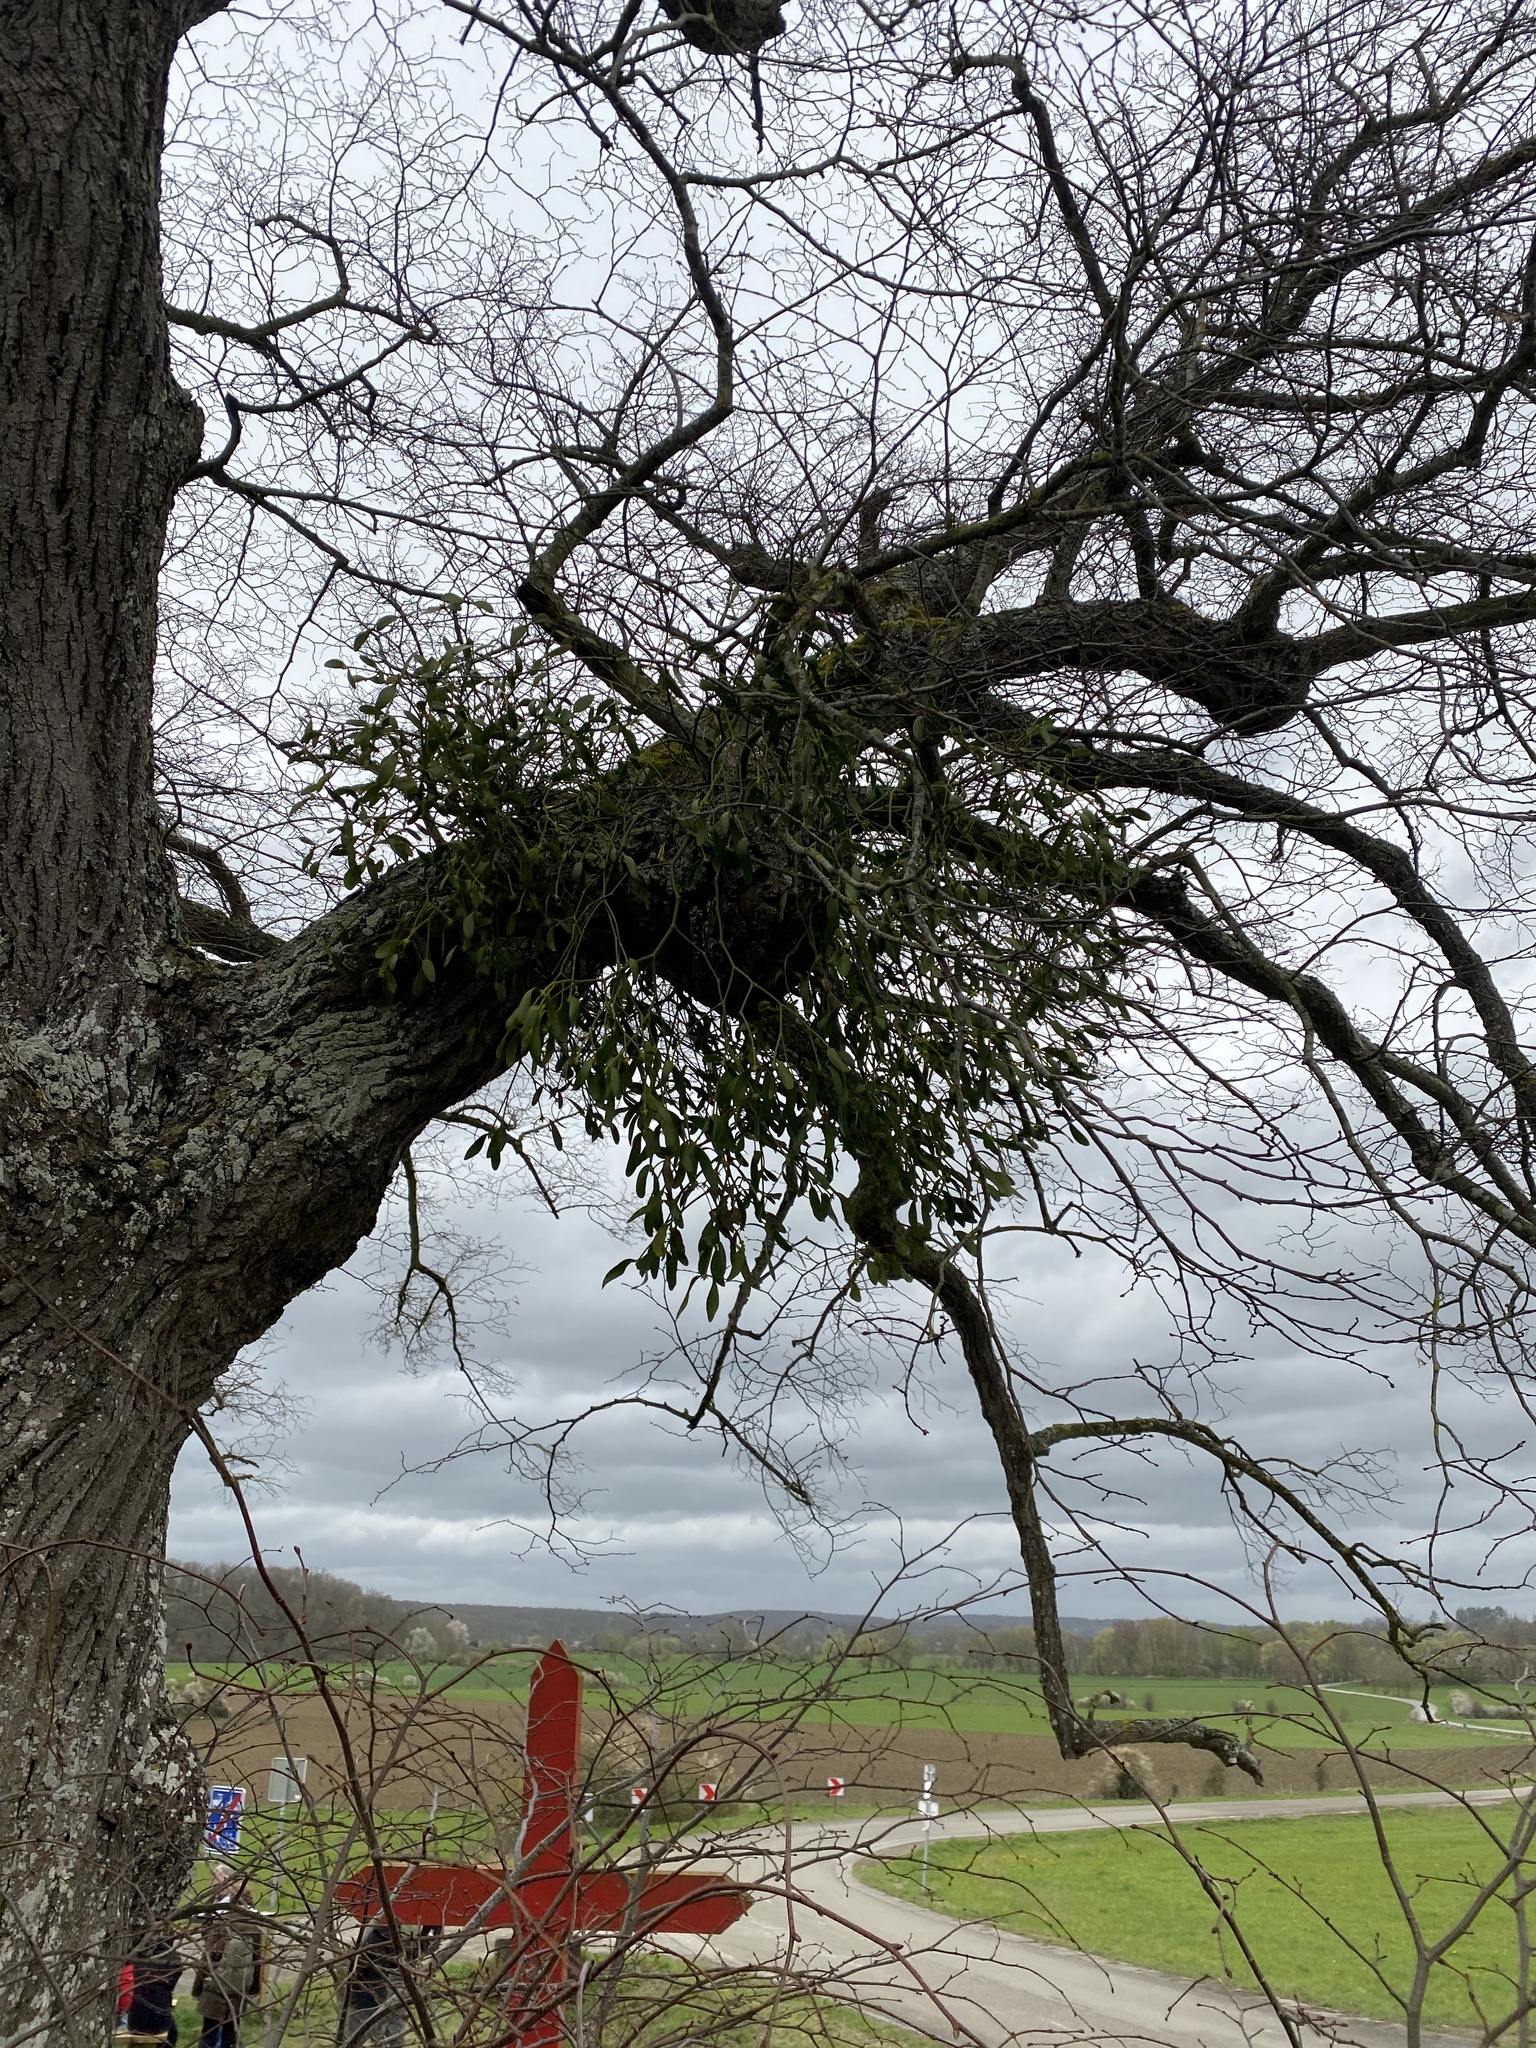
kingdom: Plantae
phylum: Tracheophyta
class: Magnoliopsida
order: Santalales
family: Viscaceae
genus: Viscum
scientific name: Viscum album
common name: Mistletoe
